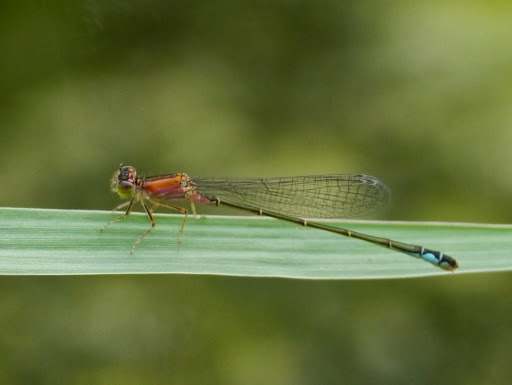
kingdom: Animalia
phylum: Arthropoda
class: Insecta
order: Odonata
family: Coenagrionidae
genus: Ischnura
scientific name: Ischnura genei
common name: Island bluetail
